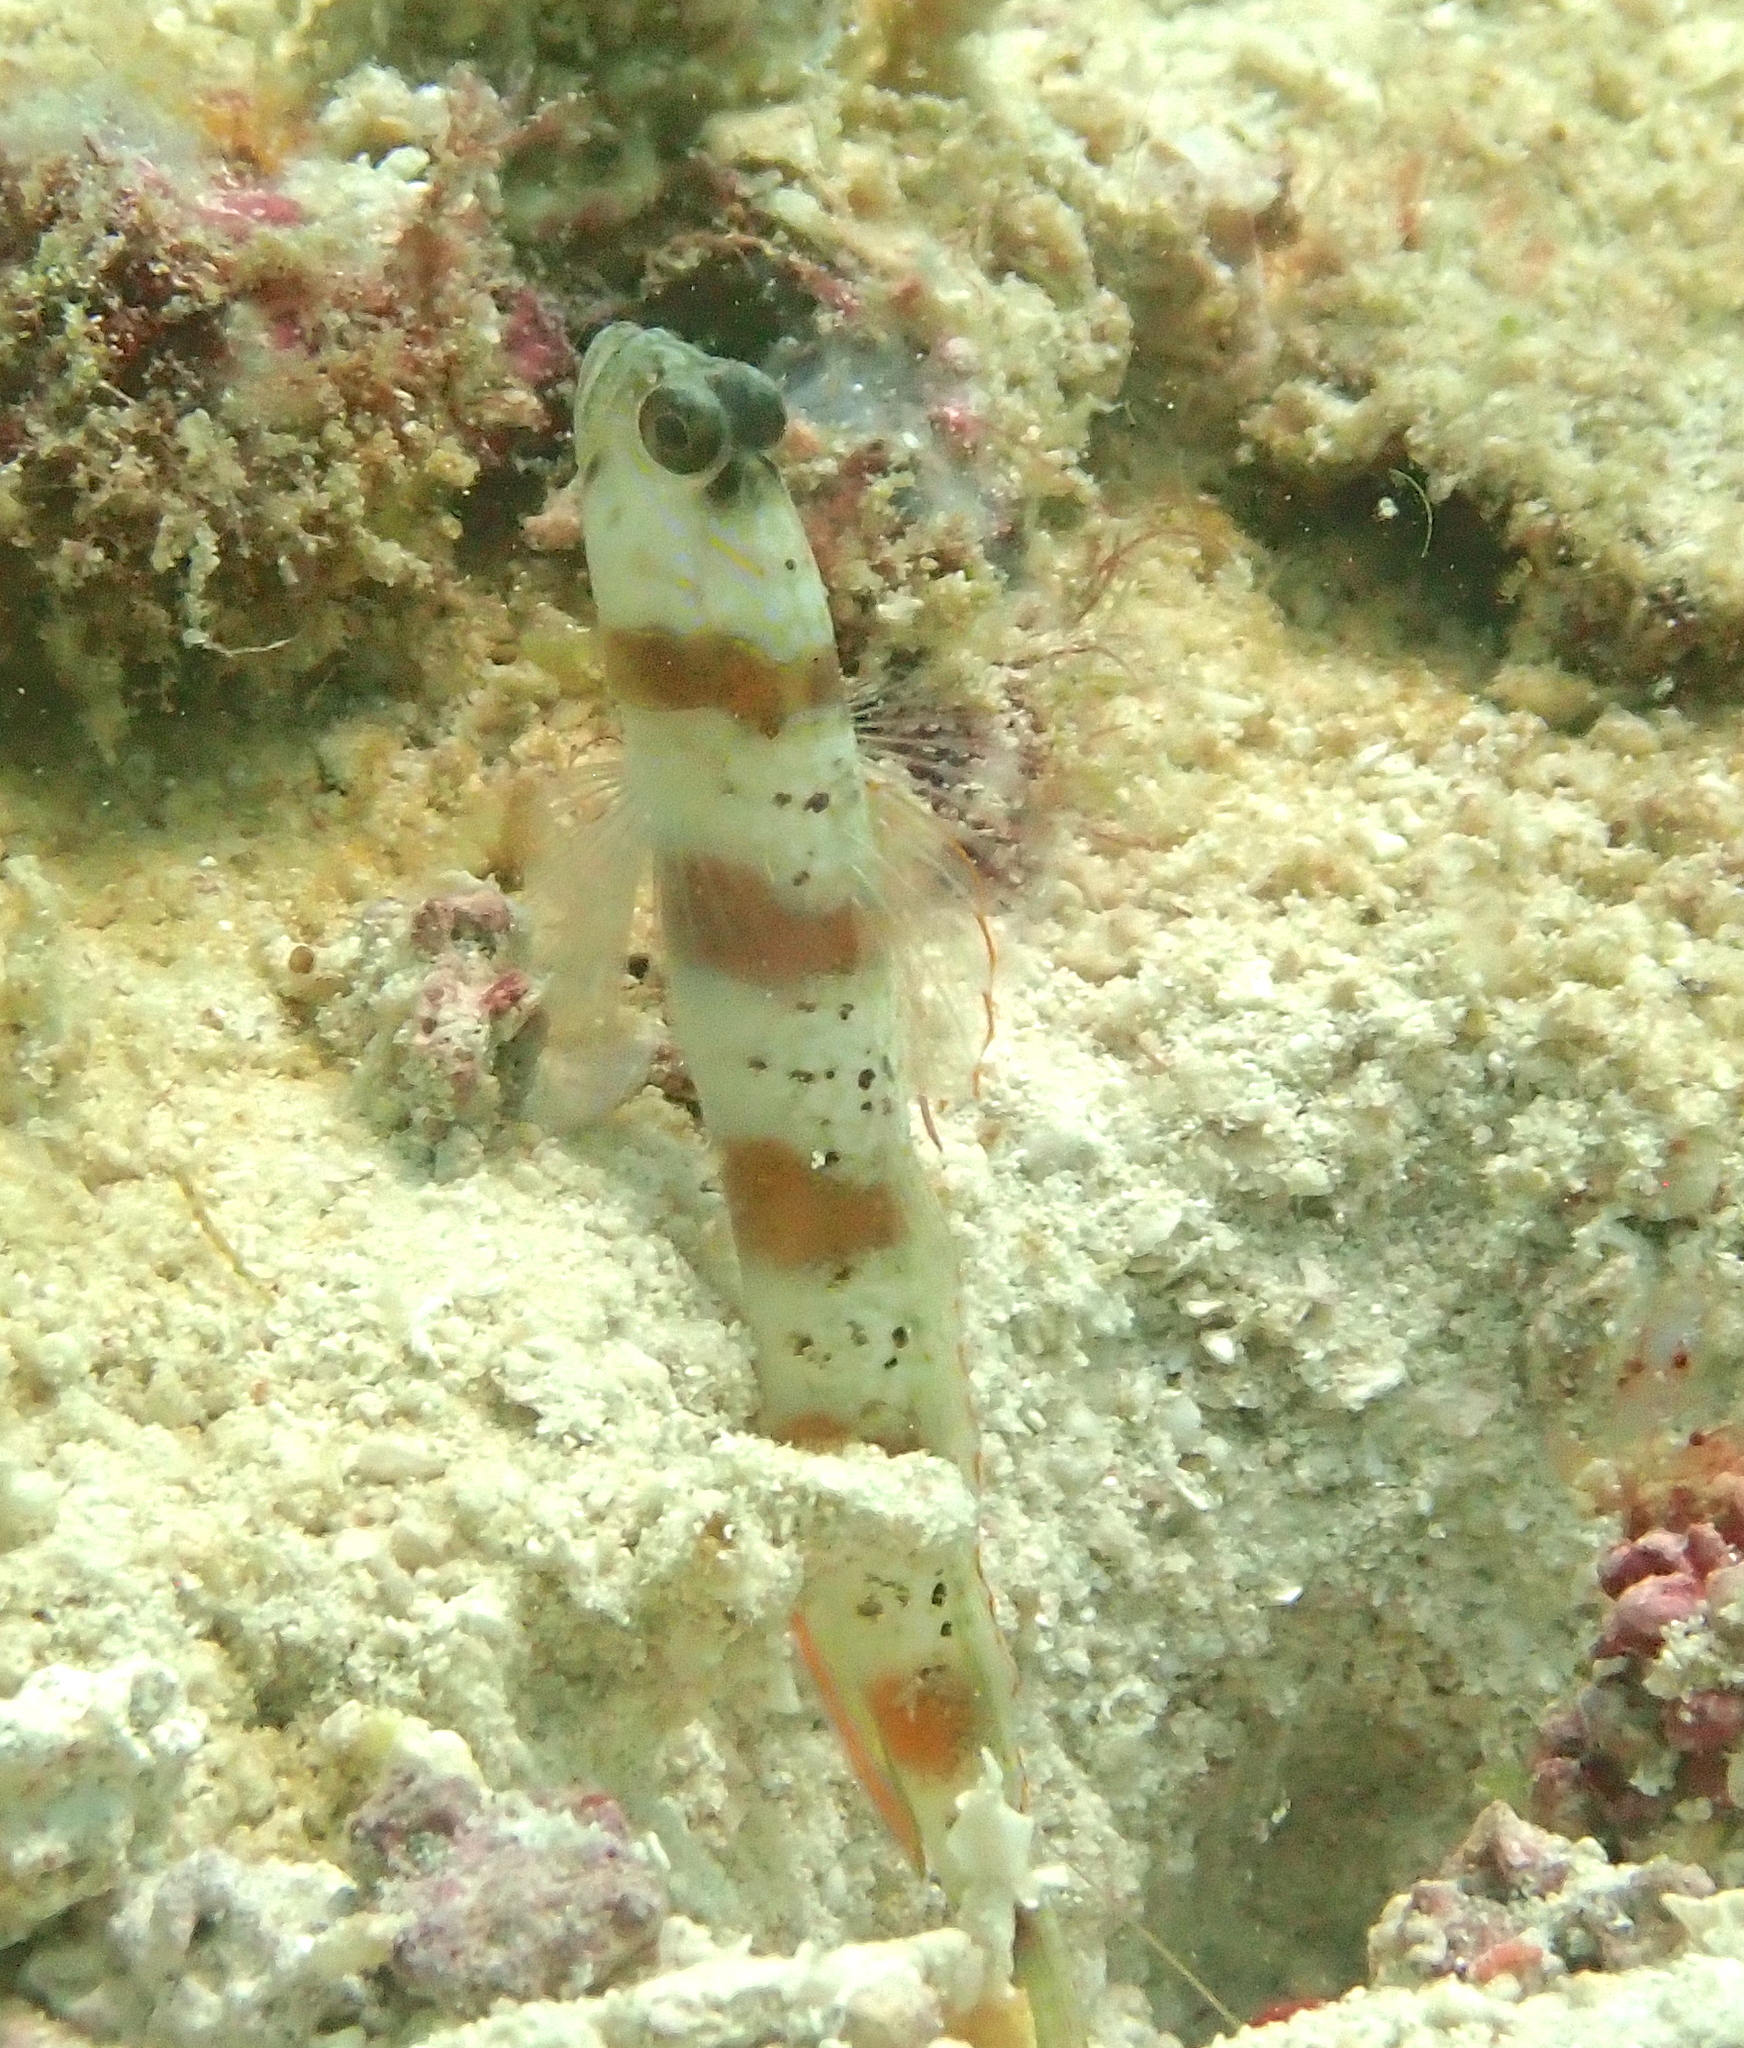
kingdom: Animalia
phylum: Chordata
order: Perciformes
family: Gobiidae
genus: Amblyeleotris
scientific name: Amblyeleotris rubrimarginata
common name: Redmargin shrimpgoby
